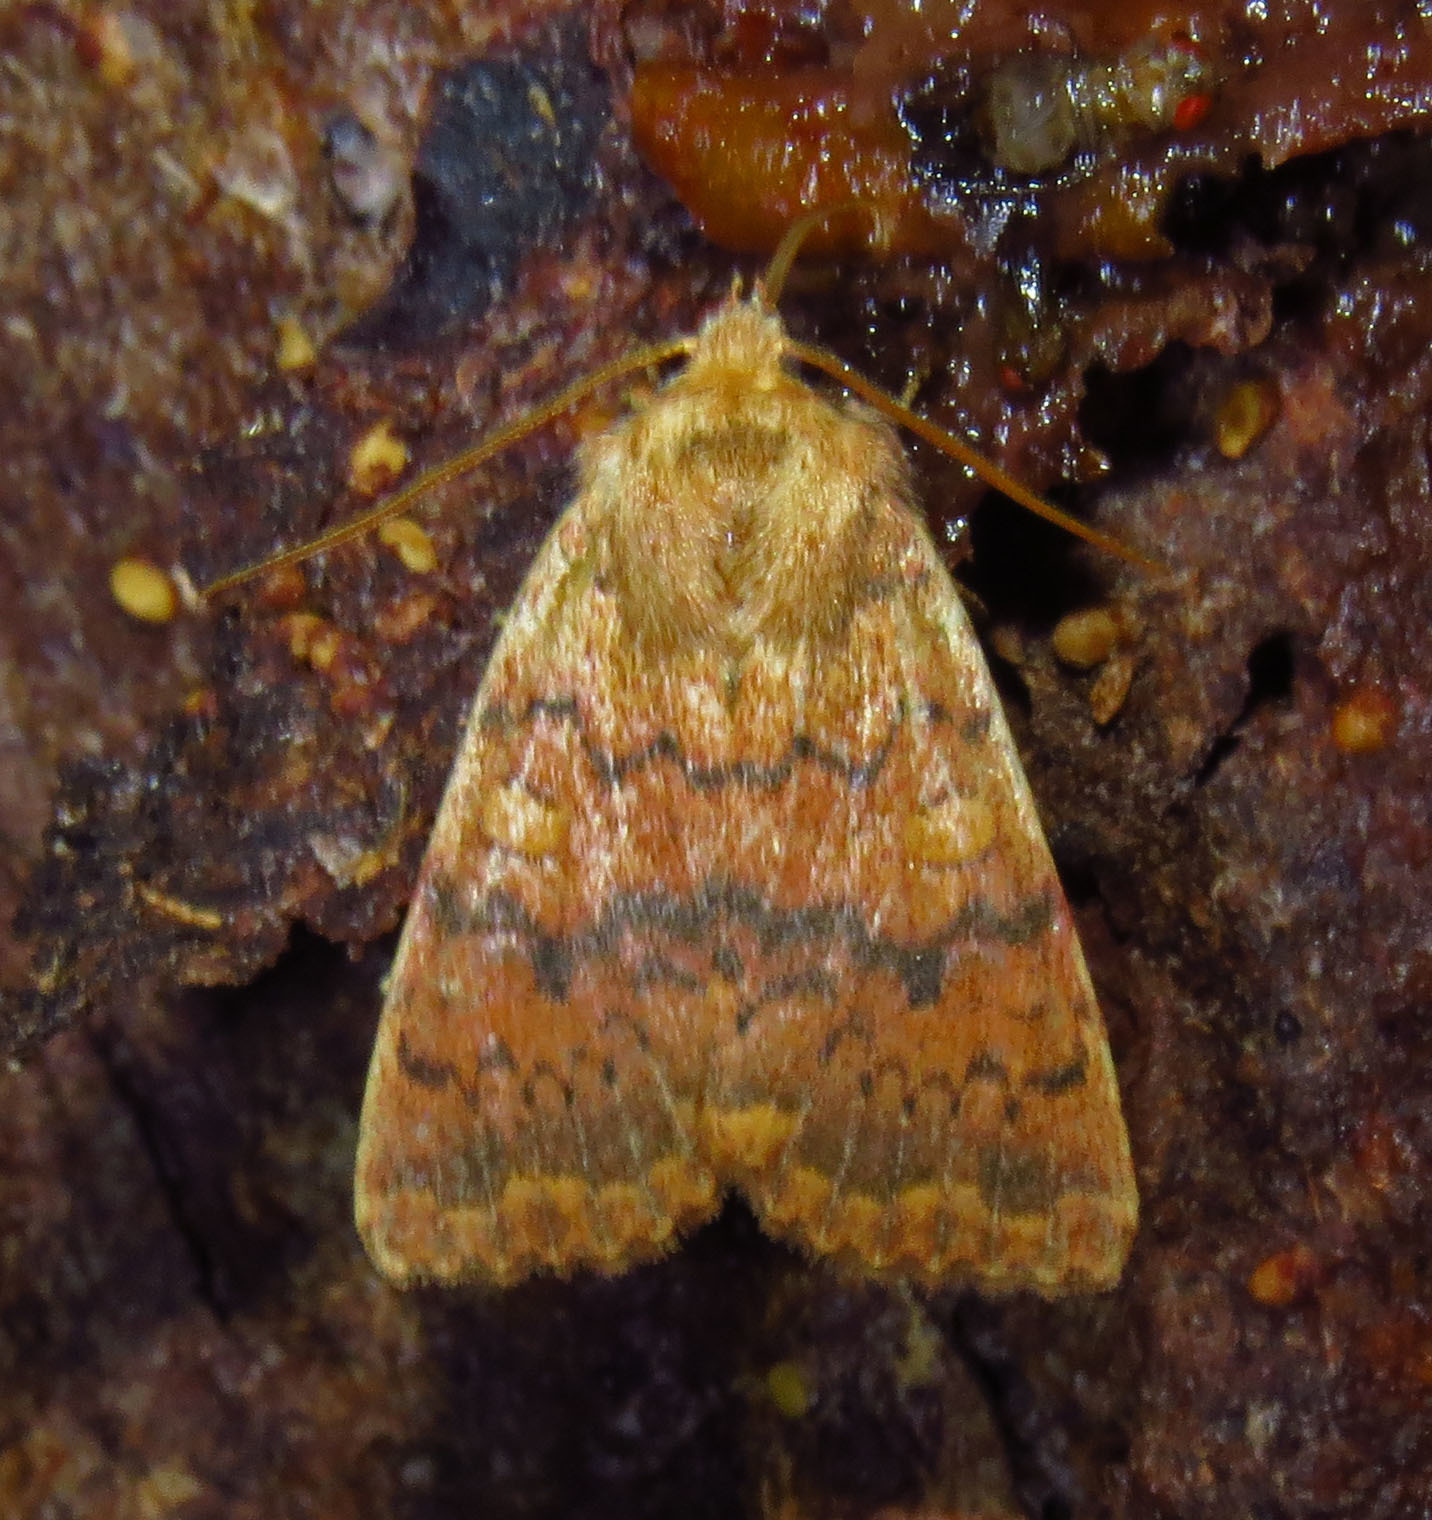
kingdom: Animalia
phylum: Arthropoda
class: Insecta
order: Lepidoptera
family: Noctuidae
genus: Agrochola
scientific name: Agrochola bicolorago
